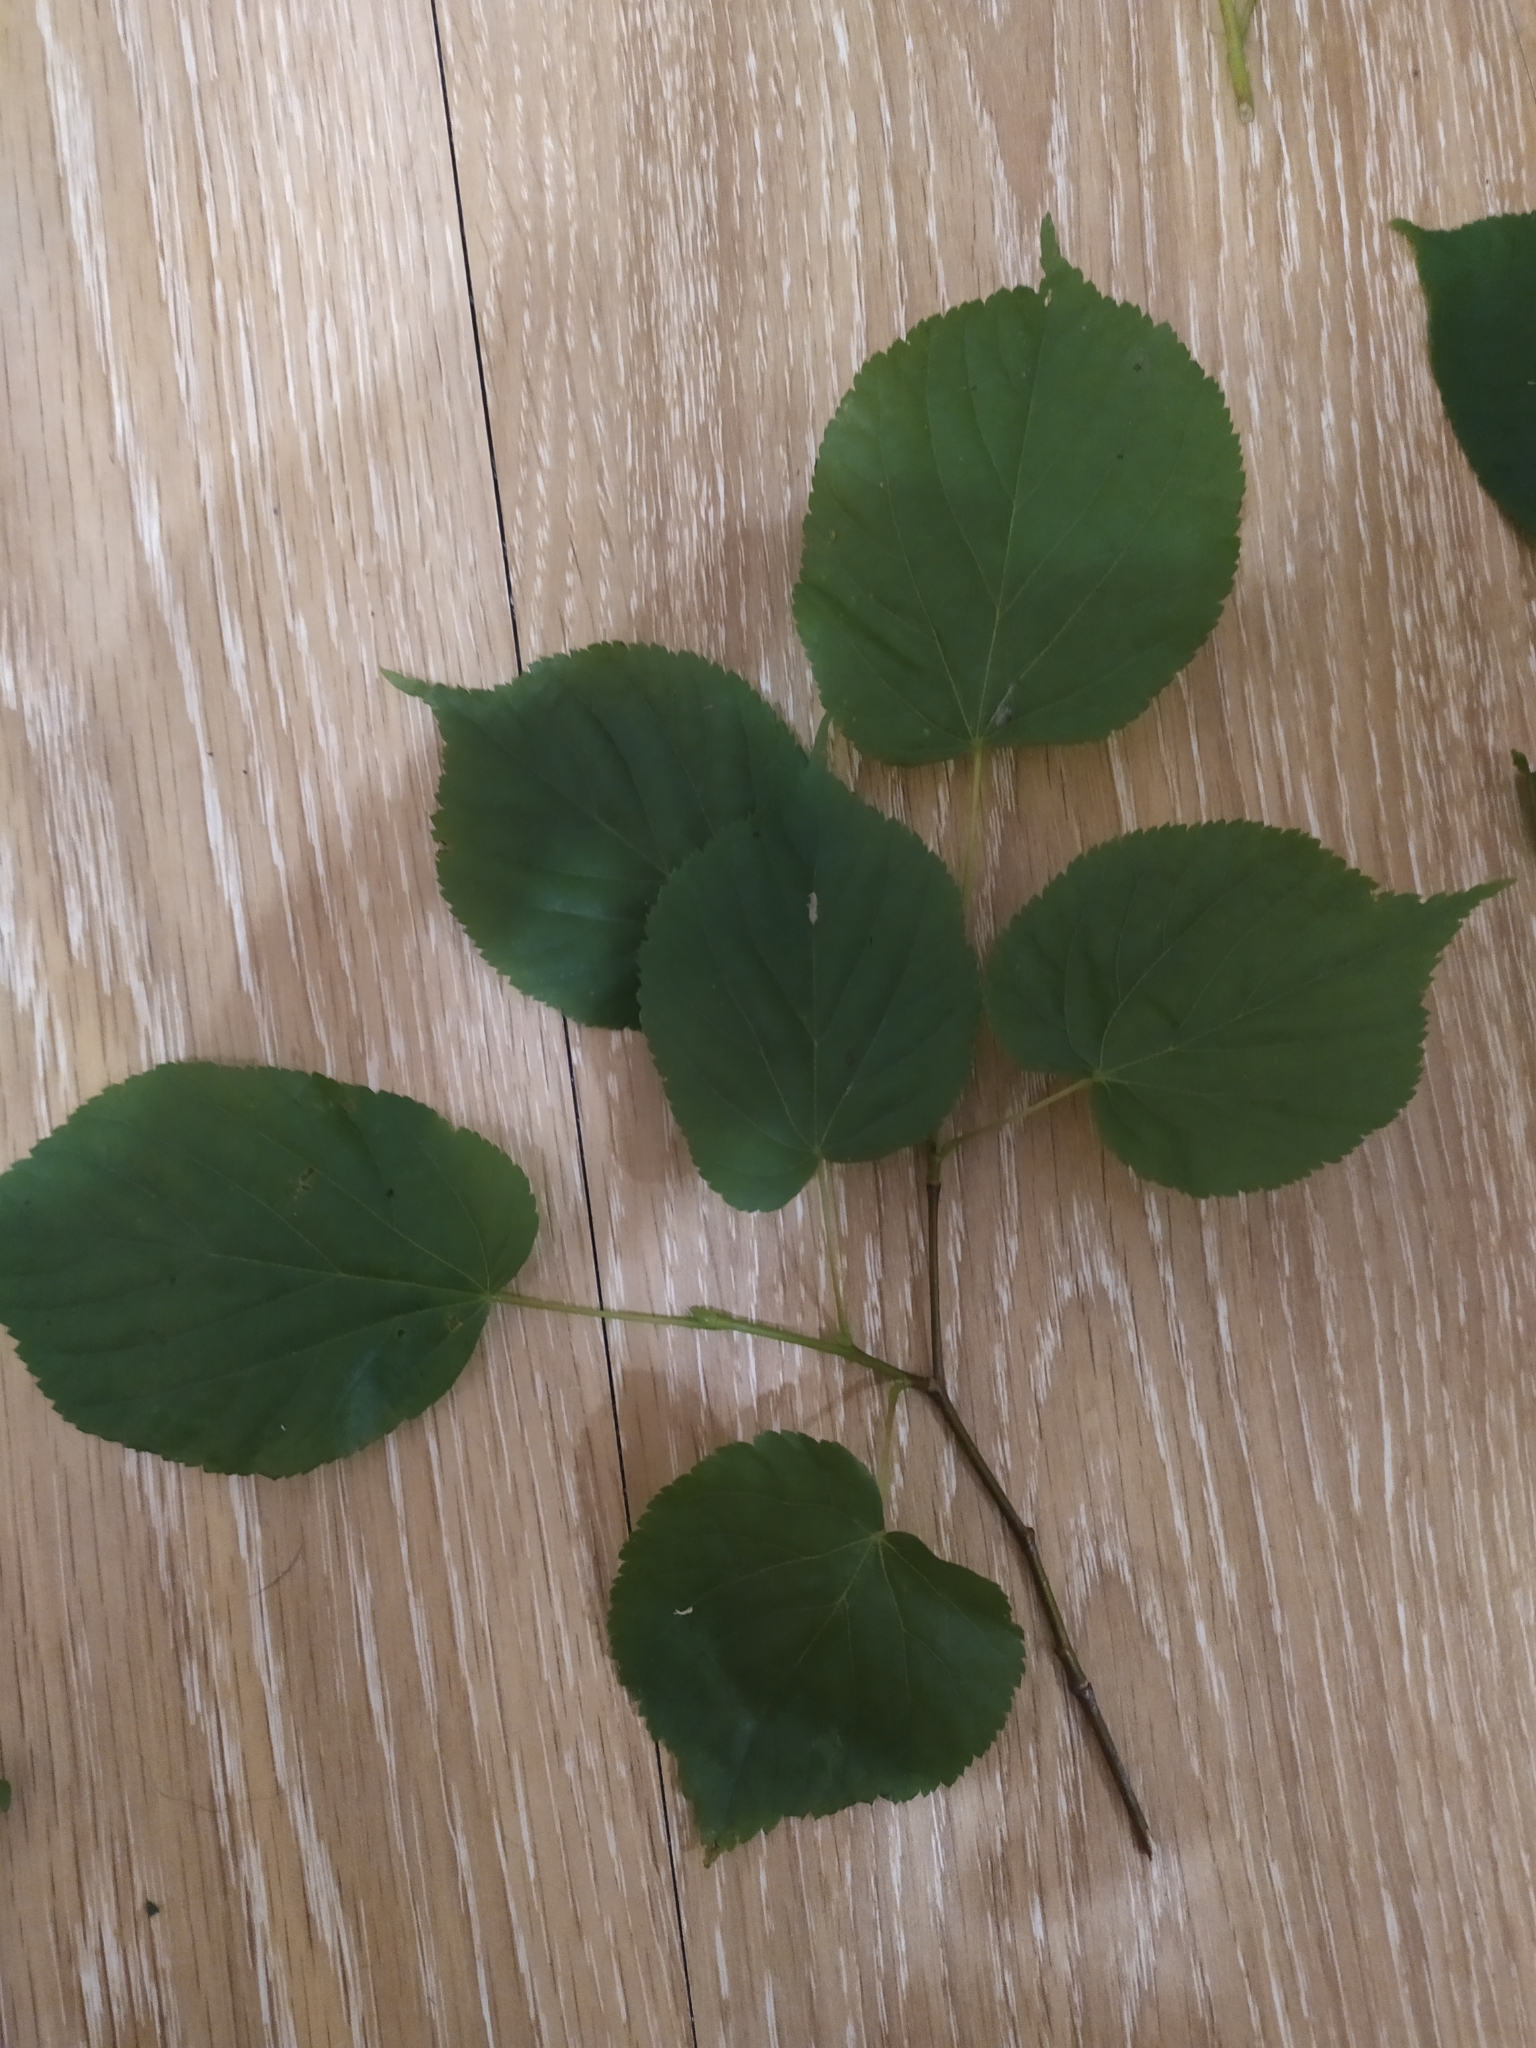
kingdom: Plantae
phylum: Tracheophyta
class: Magnoliopsida
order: Malvales
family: Malvaceae
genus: Tilia
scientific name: Tilia cordata
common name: Small-leaved lime
